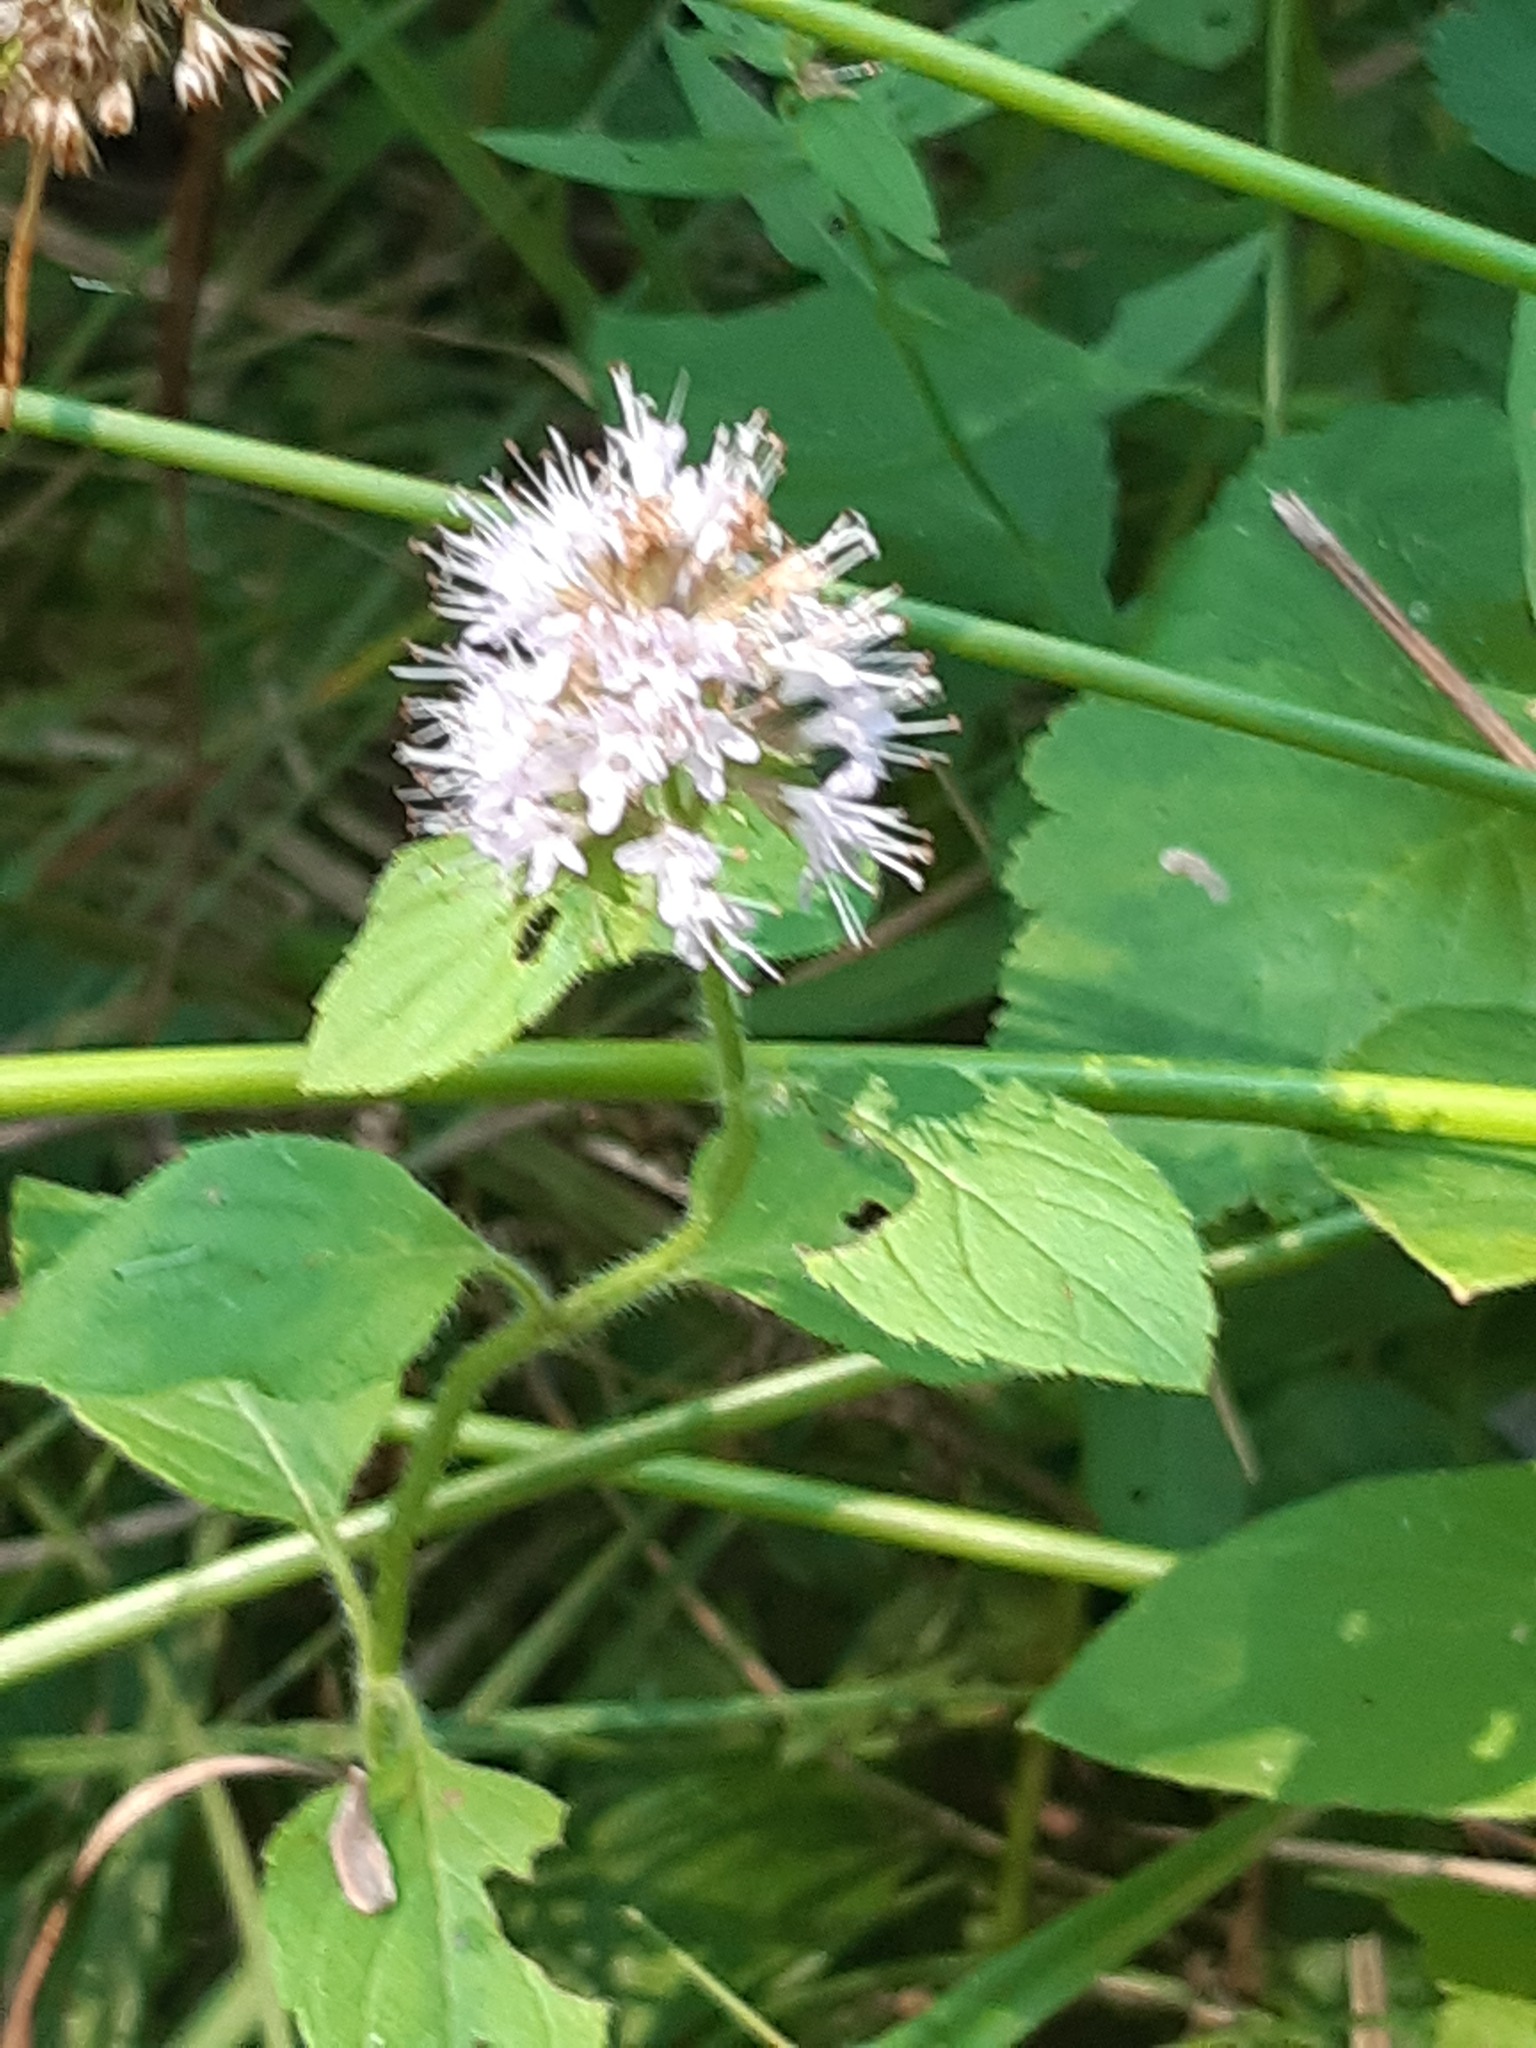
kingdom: Plantae
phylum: Tracheophyta
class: Magnoliopsida
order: Lamiales
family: Lamiaceae
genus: Mentha
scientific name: Mentha aquatica
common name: Water mint
